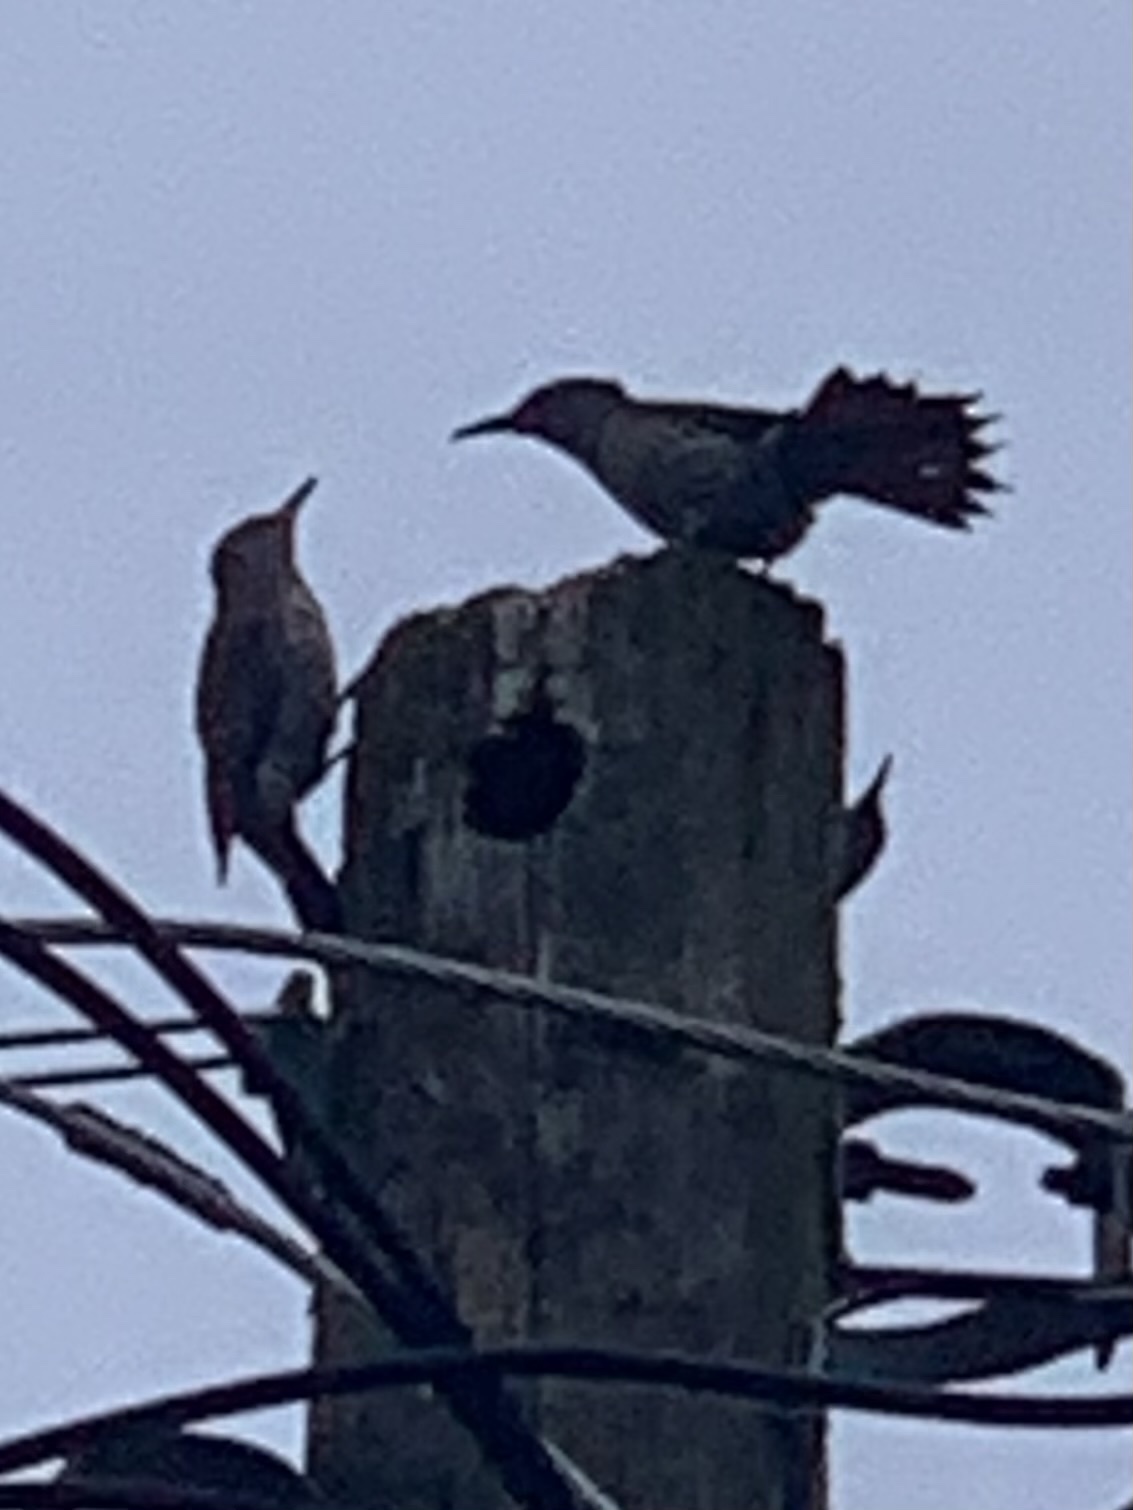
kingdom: Animalia
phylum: Chordata
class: Aves
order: Piciformes
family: Picidae
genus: Colaptes
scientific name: Colaptes auratus
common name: Northern flicker
